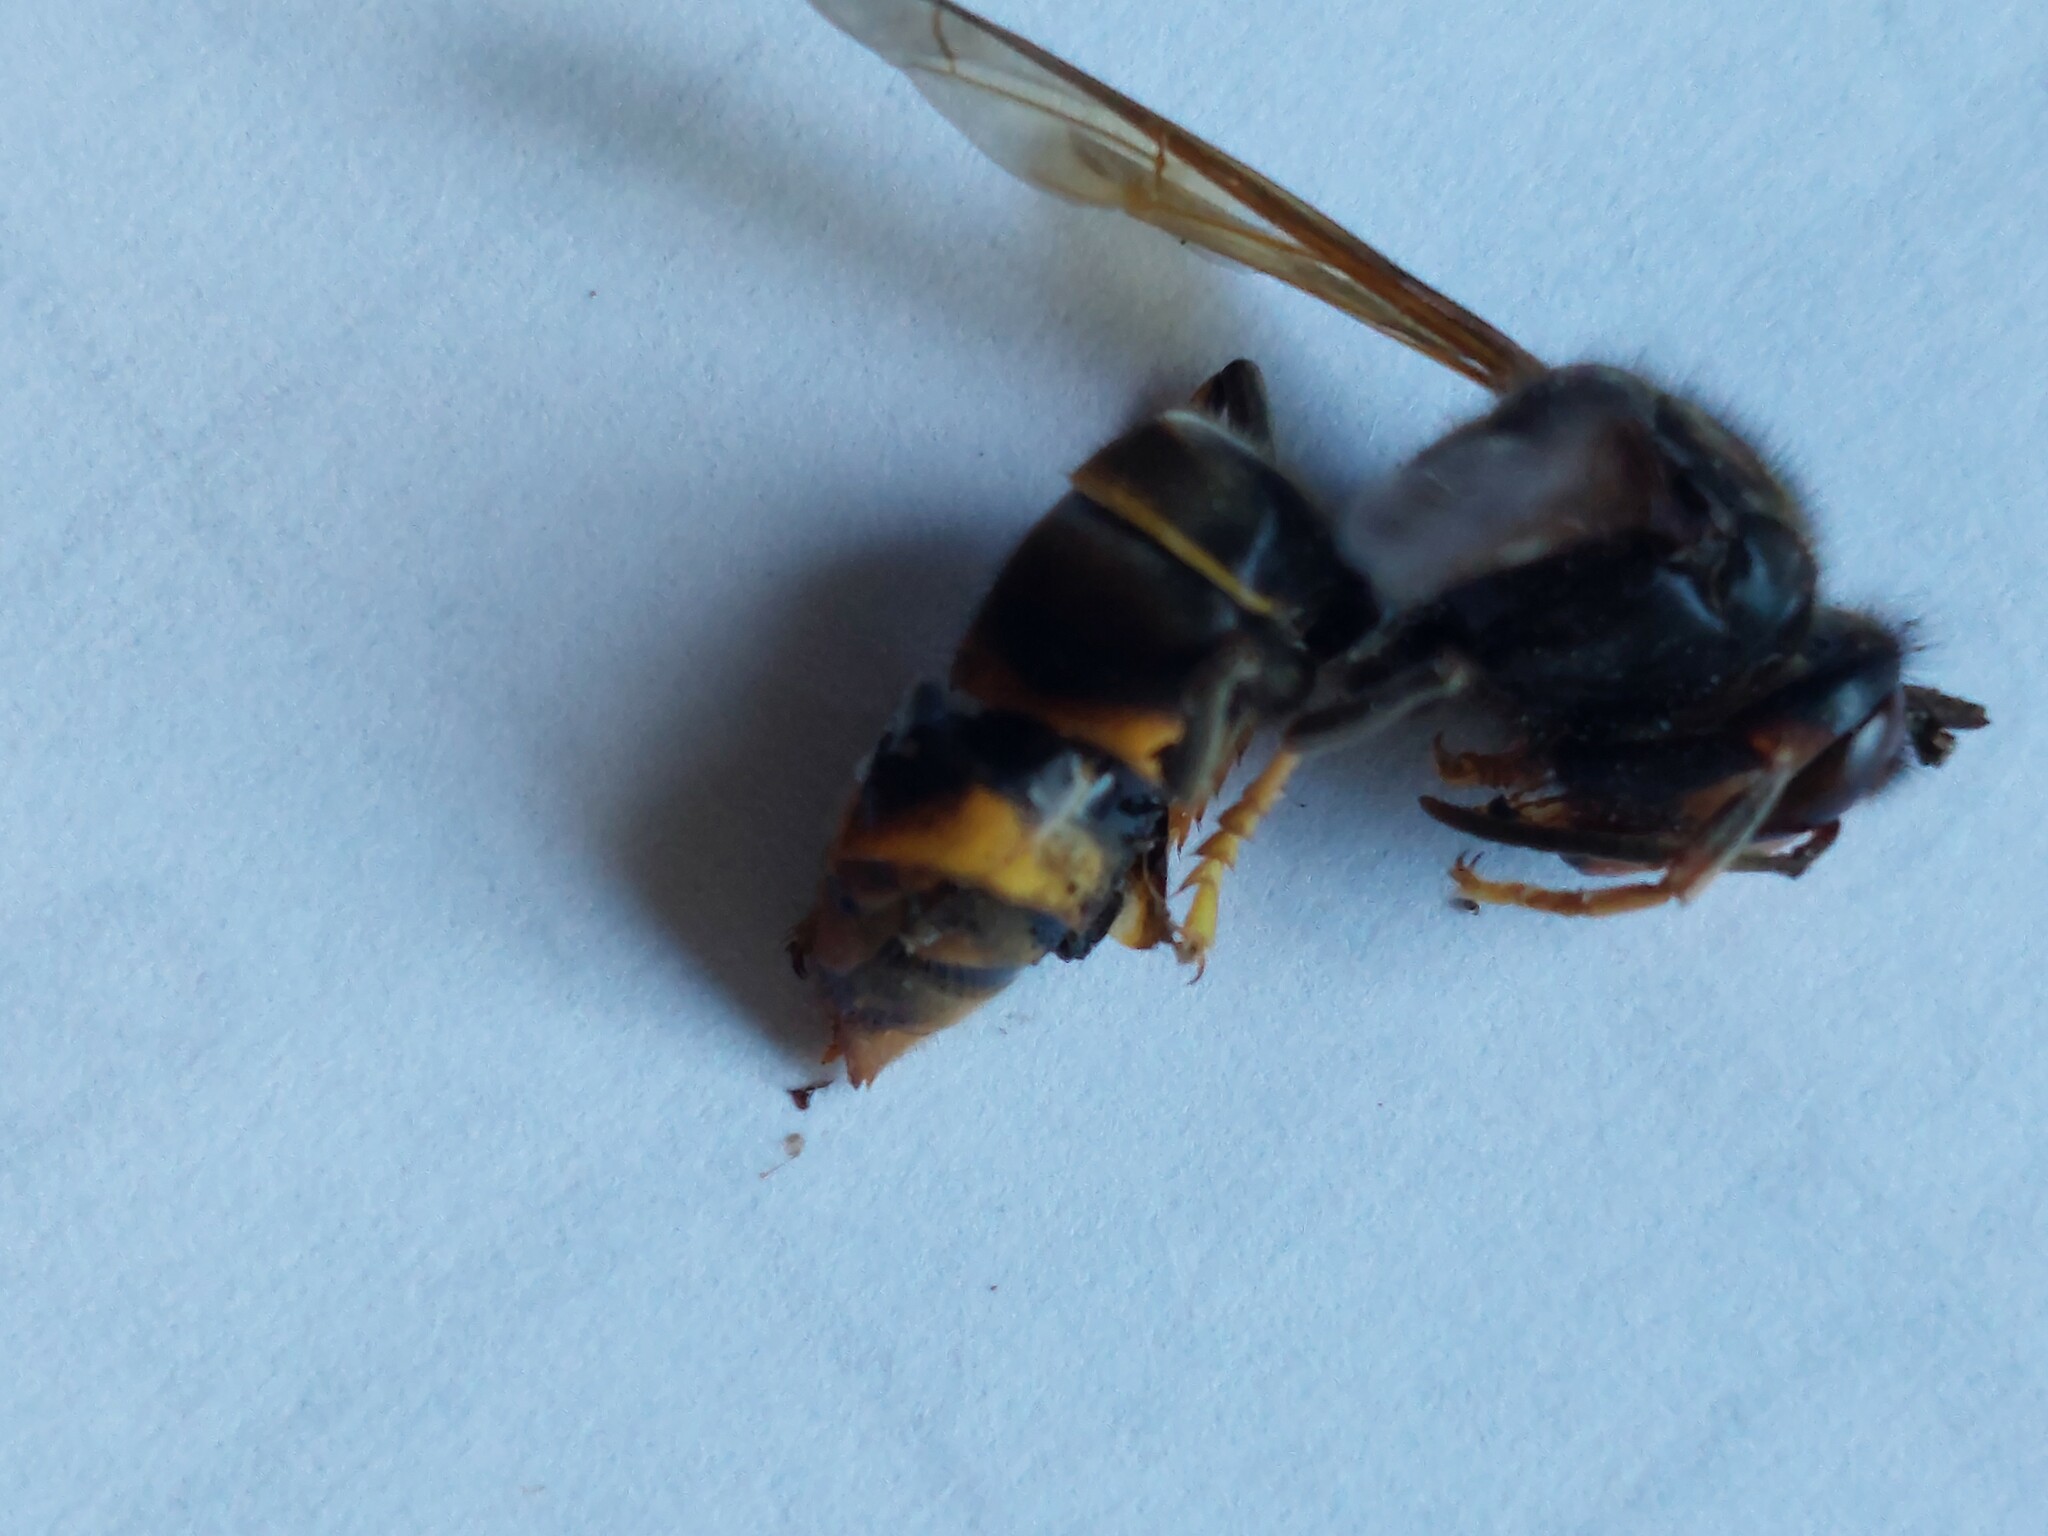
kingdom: Animalia
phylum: Arthropoda
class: Insecta
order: Hymenoptera
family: Vespidae
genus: Vespa
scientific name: Vespa velutina
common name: Asian hornet
